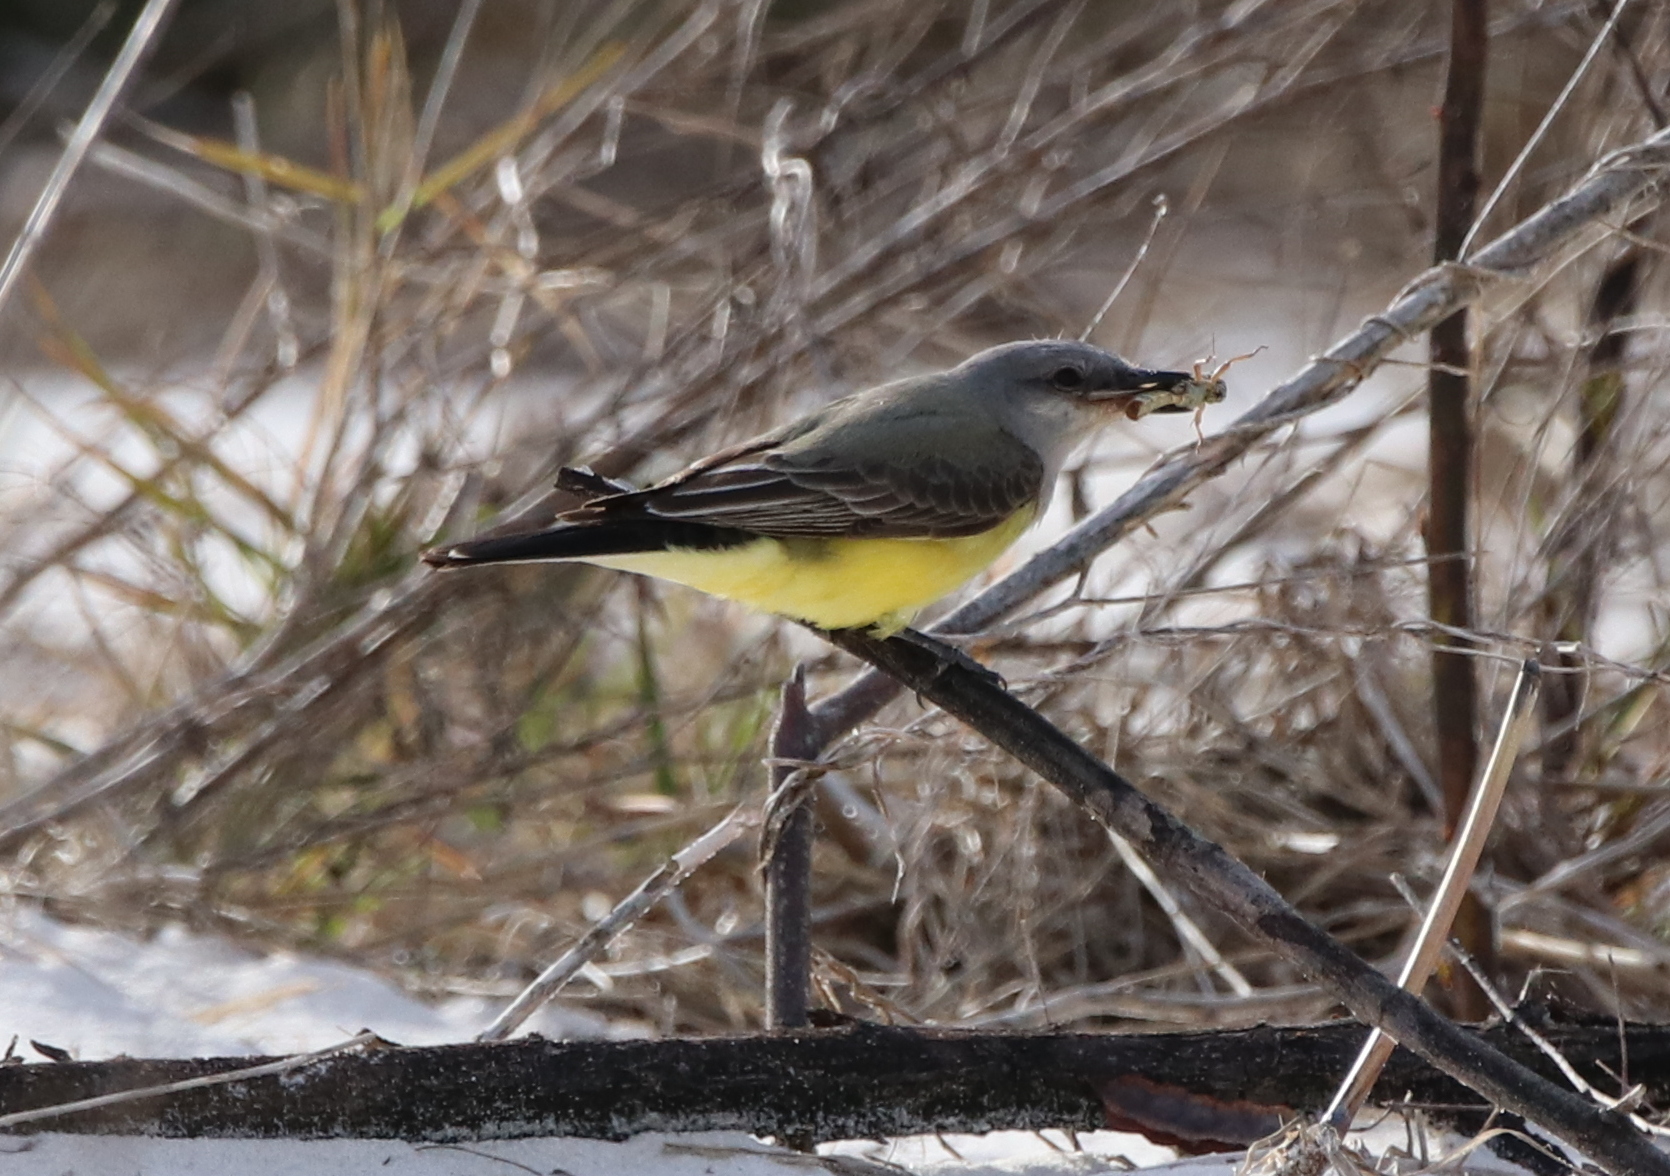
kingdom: Animalia
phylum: Chordata
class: Aves
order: Passeriformes
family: Tyrannidae
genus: Tyrannus
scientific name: Tyrannus verticalis
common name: Western kingbird
